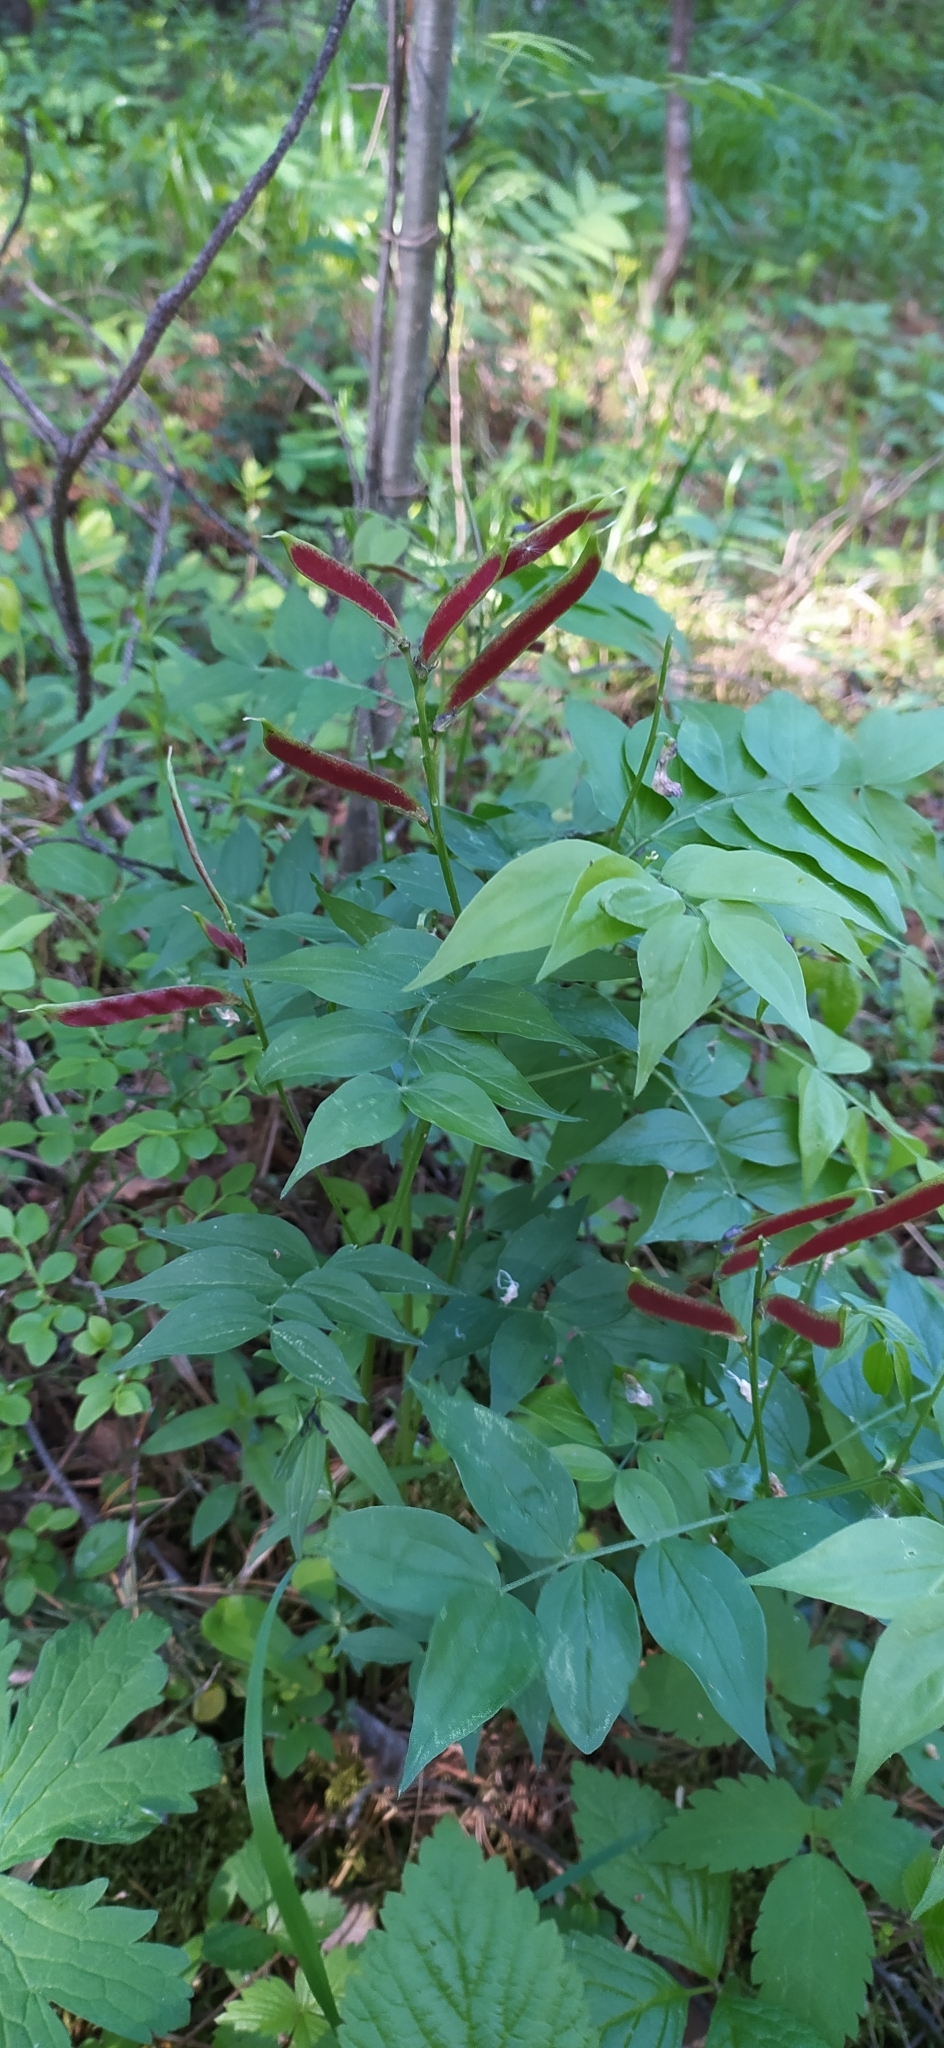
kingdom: Plantae
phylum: Tracheophyta
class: Magnoliopsida
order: Fabales
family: Fabaceae
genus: Lathyrus
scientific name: Lathyrus vernus
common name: Spring pea
